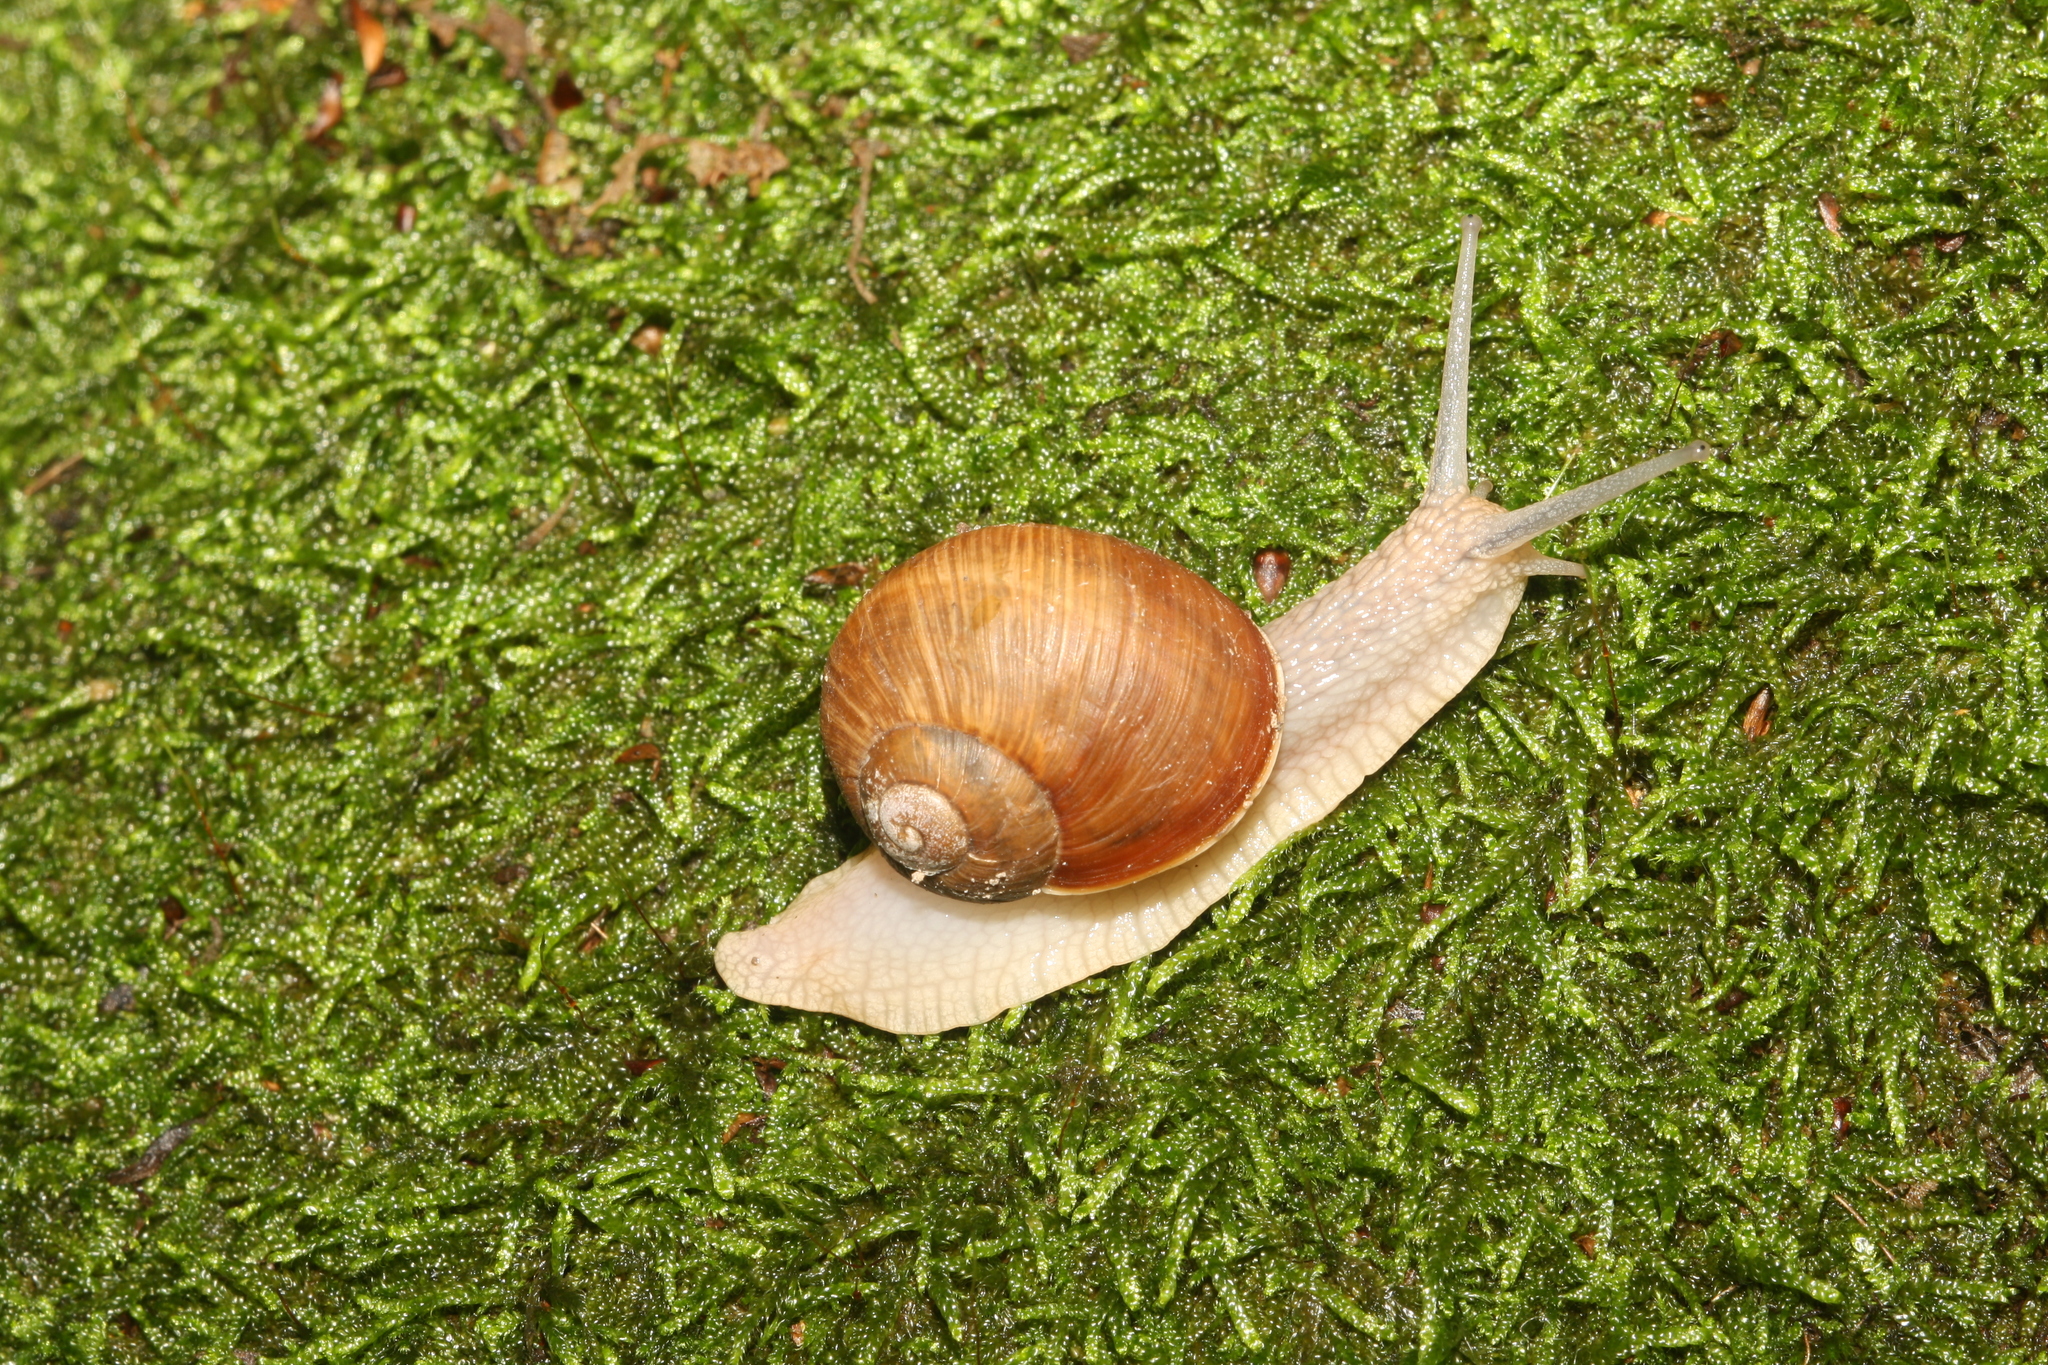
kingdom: Animalia
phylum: Mollusca
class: Gastropoda
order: Stylommatophora
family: Helicidae
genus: Helix
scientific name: Helix pomatia
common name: Roman snail
